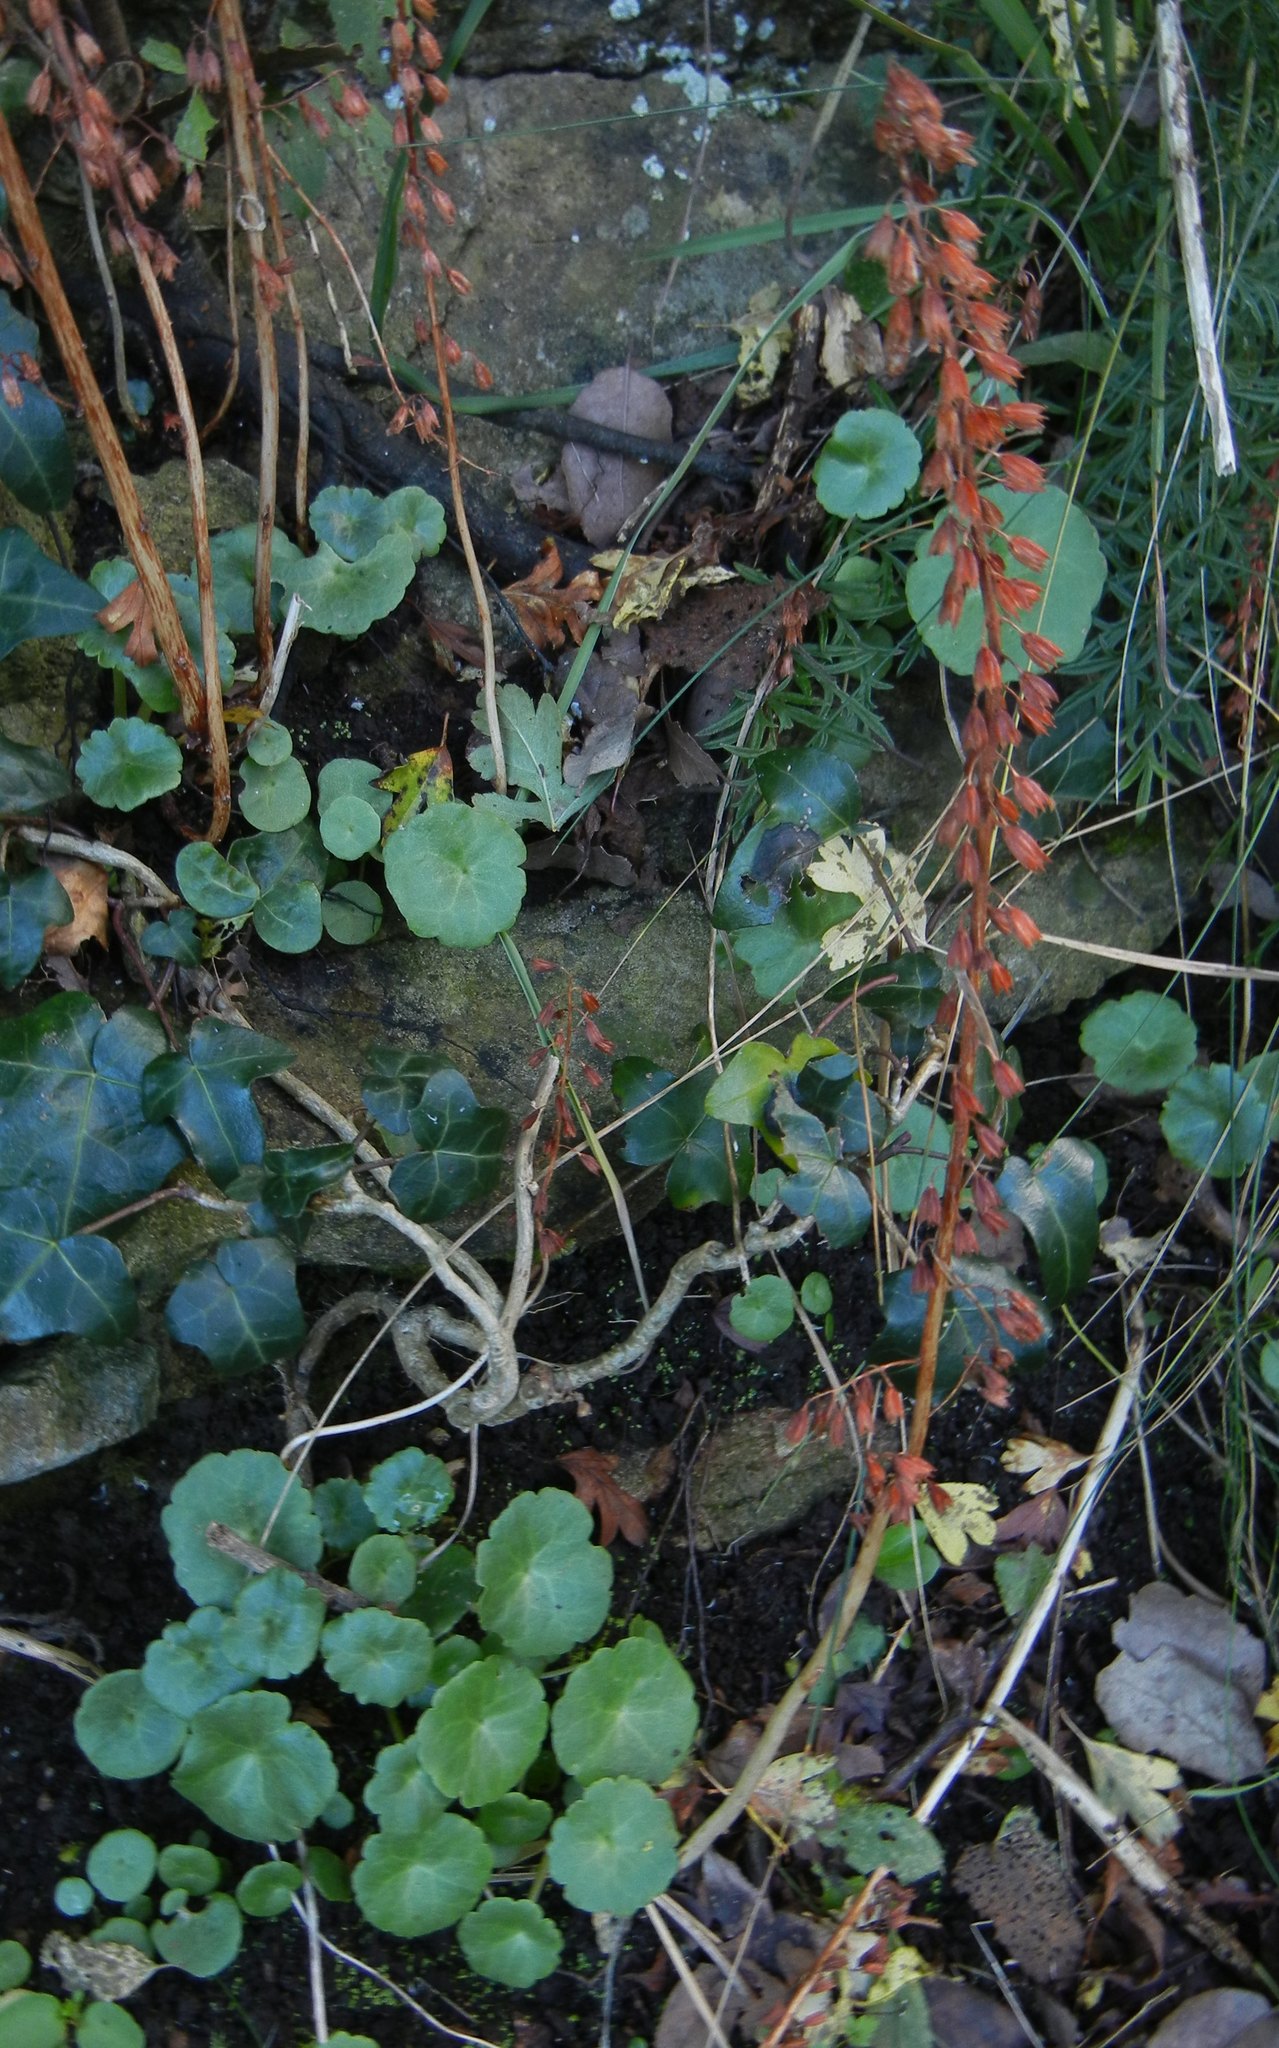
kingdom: Plantae
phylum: Tracheophyta
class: Magnoliopsida
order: Saxifragales
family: Crassulaceae
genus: Umbilicus
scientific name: Umbilicus rupestris
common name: Navelwort
